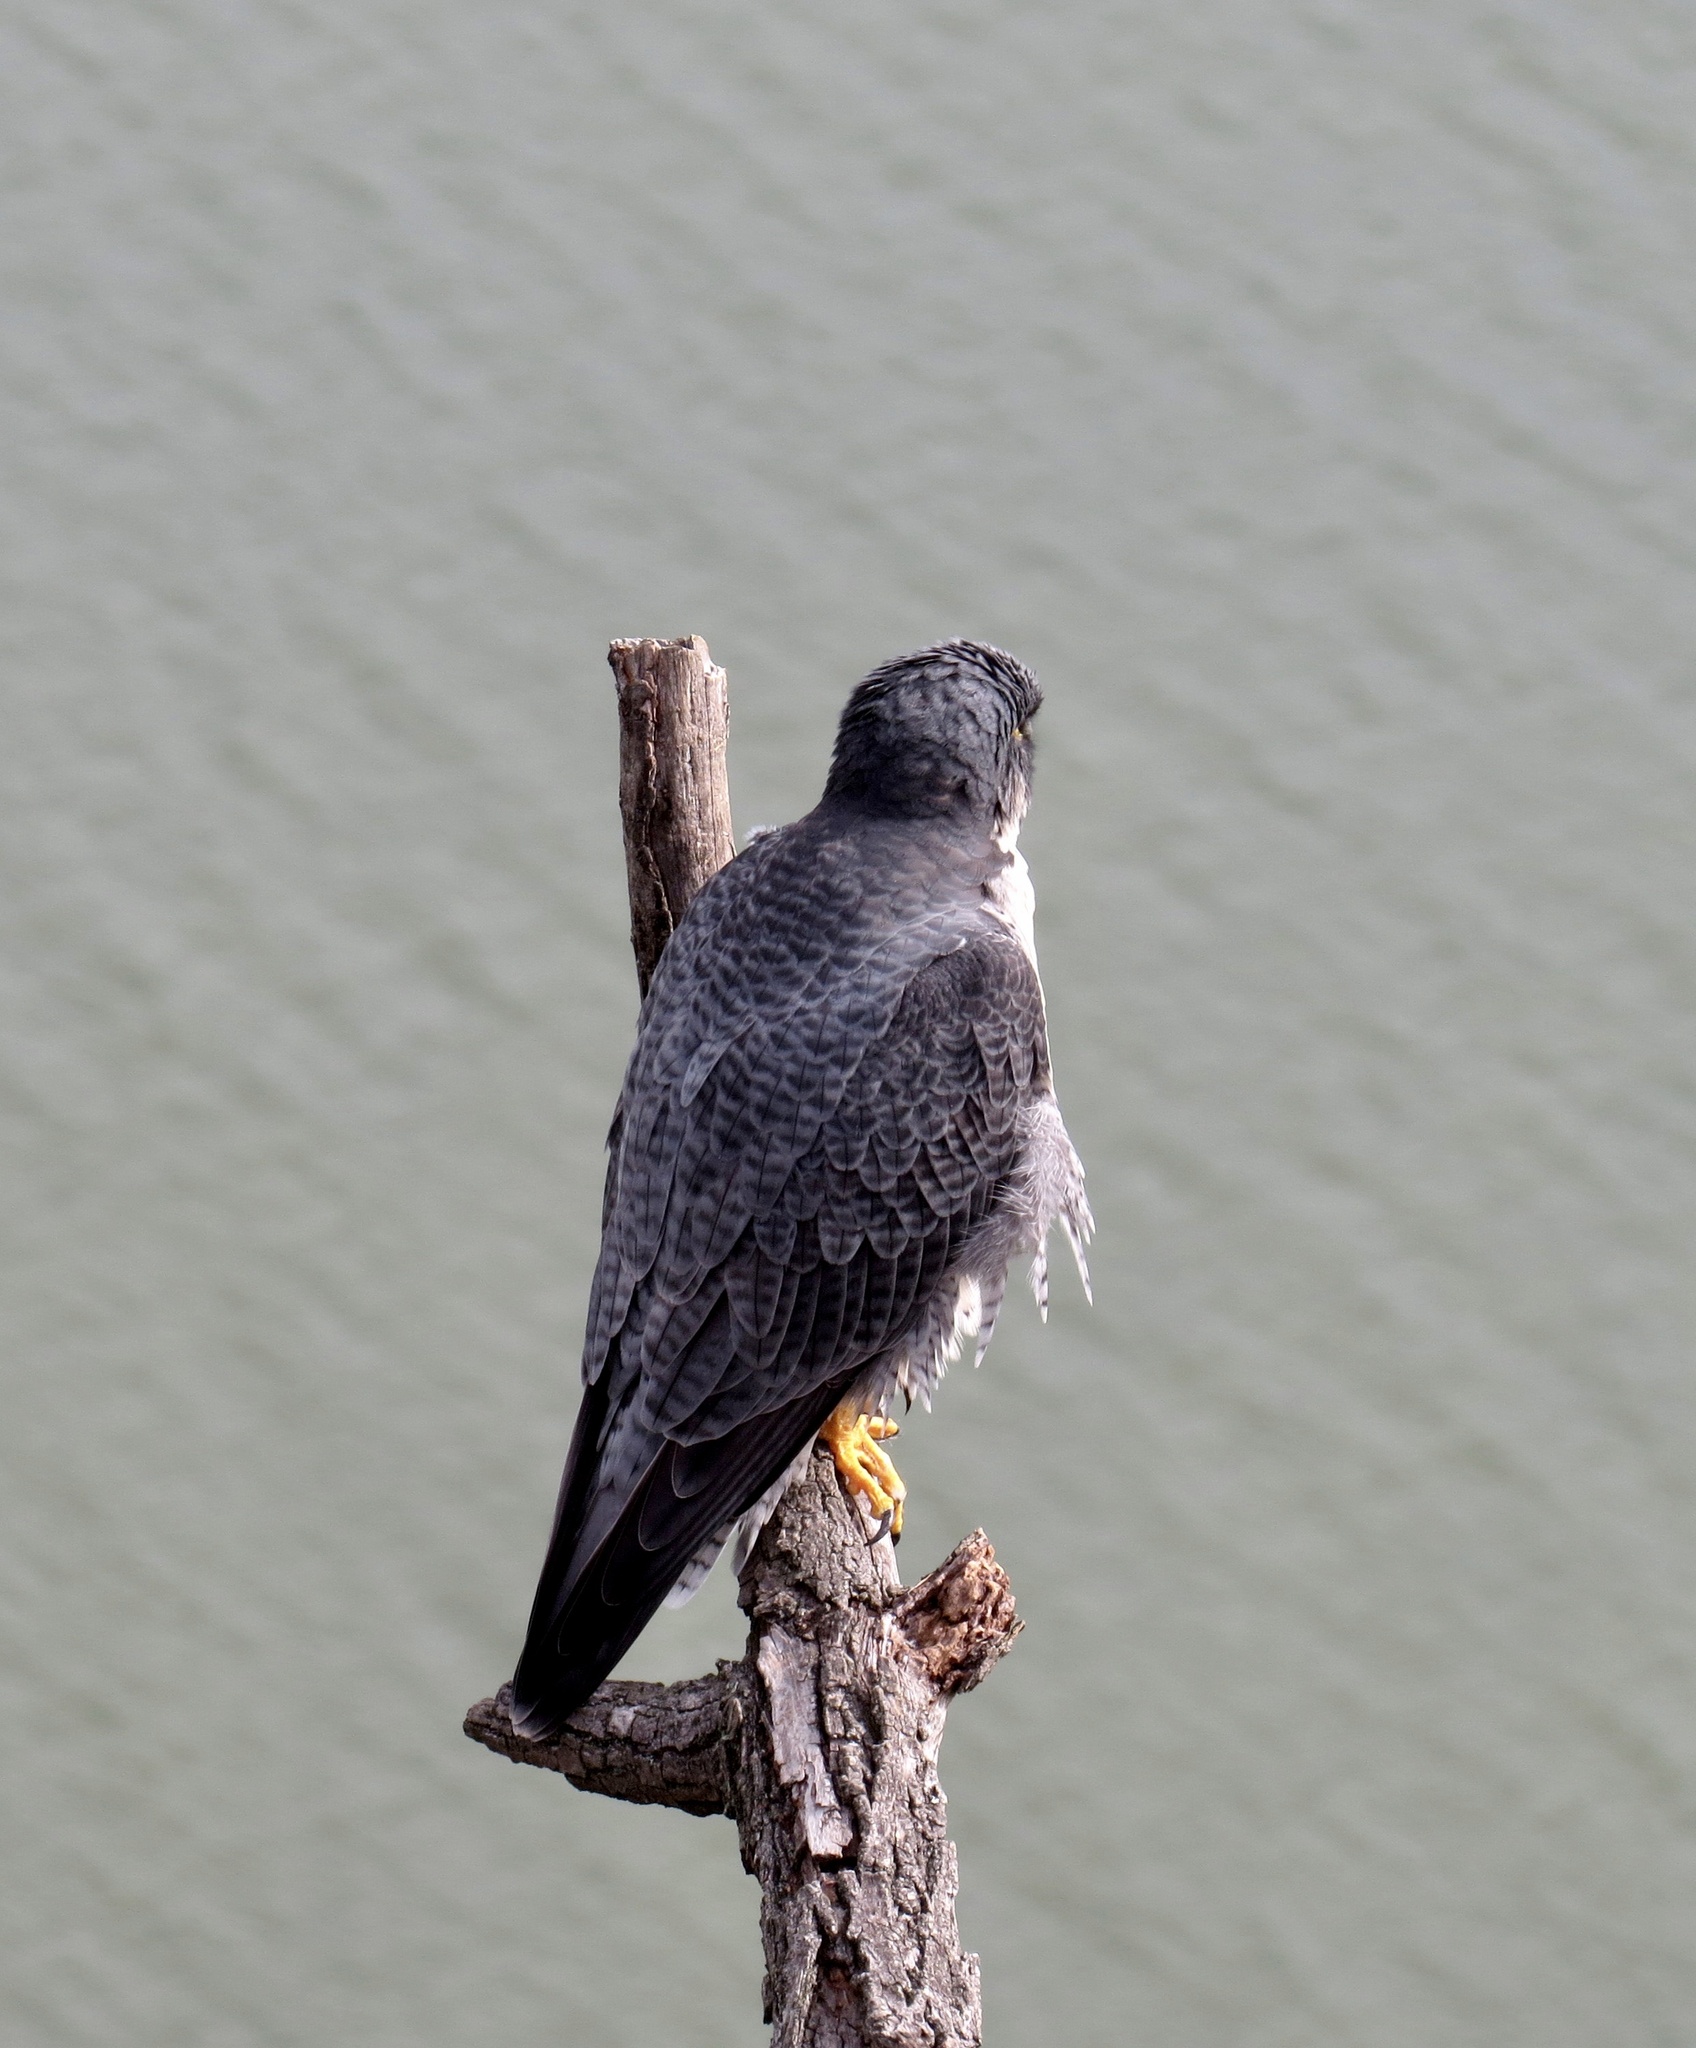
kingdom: Animalia
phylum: Chordata
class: Aves
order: Falconiformes
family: Falconidae
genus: Falco
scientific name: Falco peregrinus
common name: Peregrine falcon
